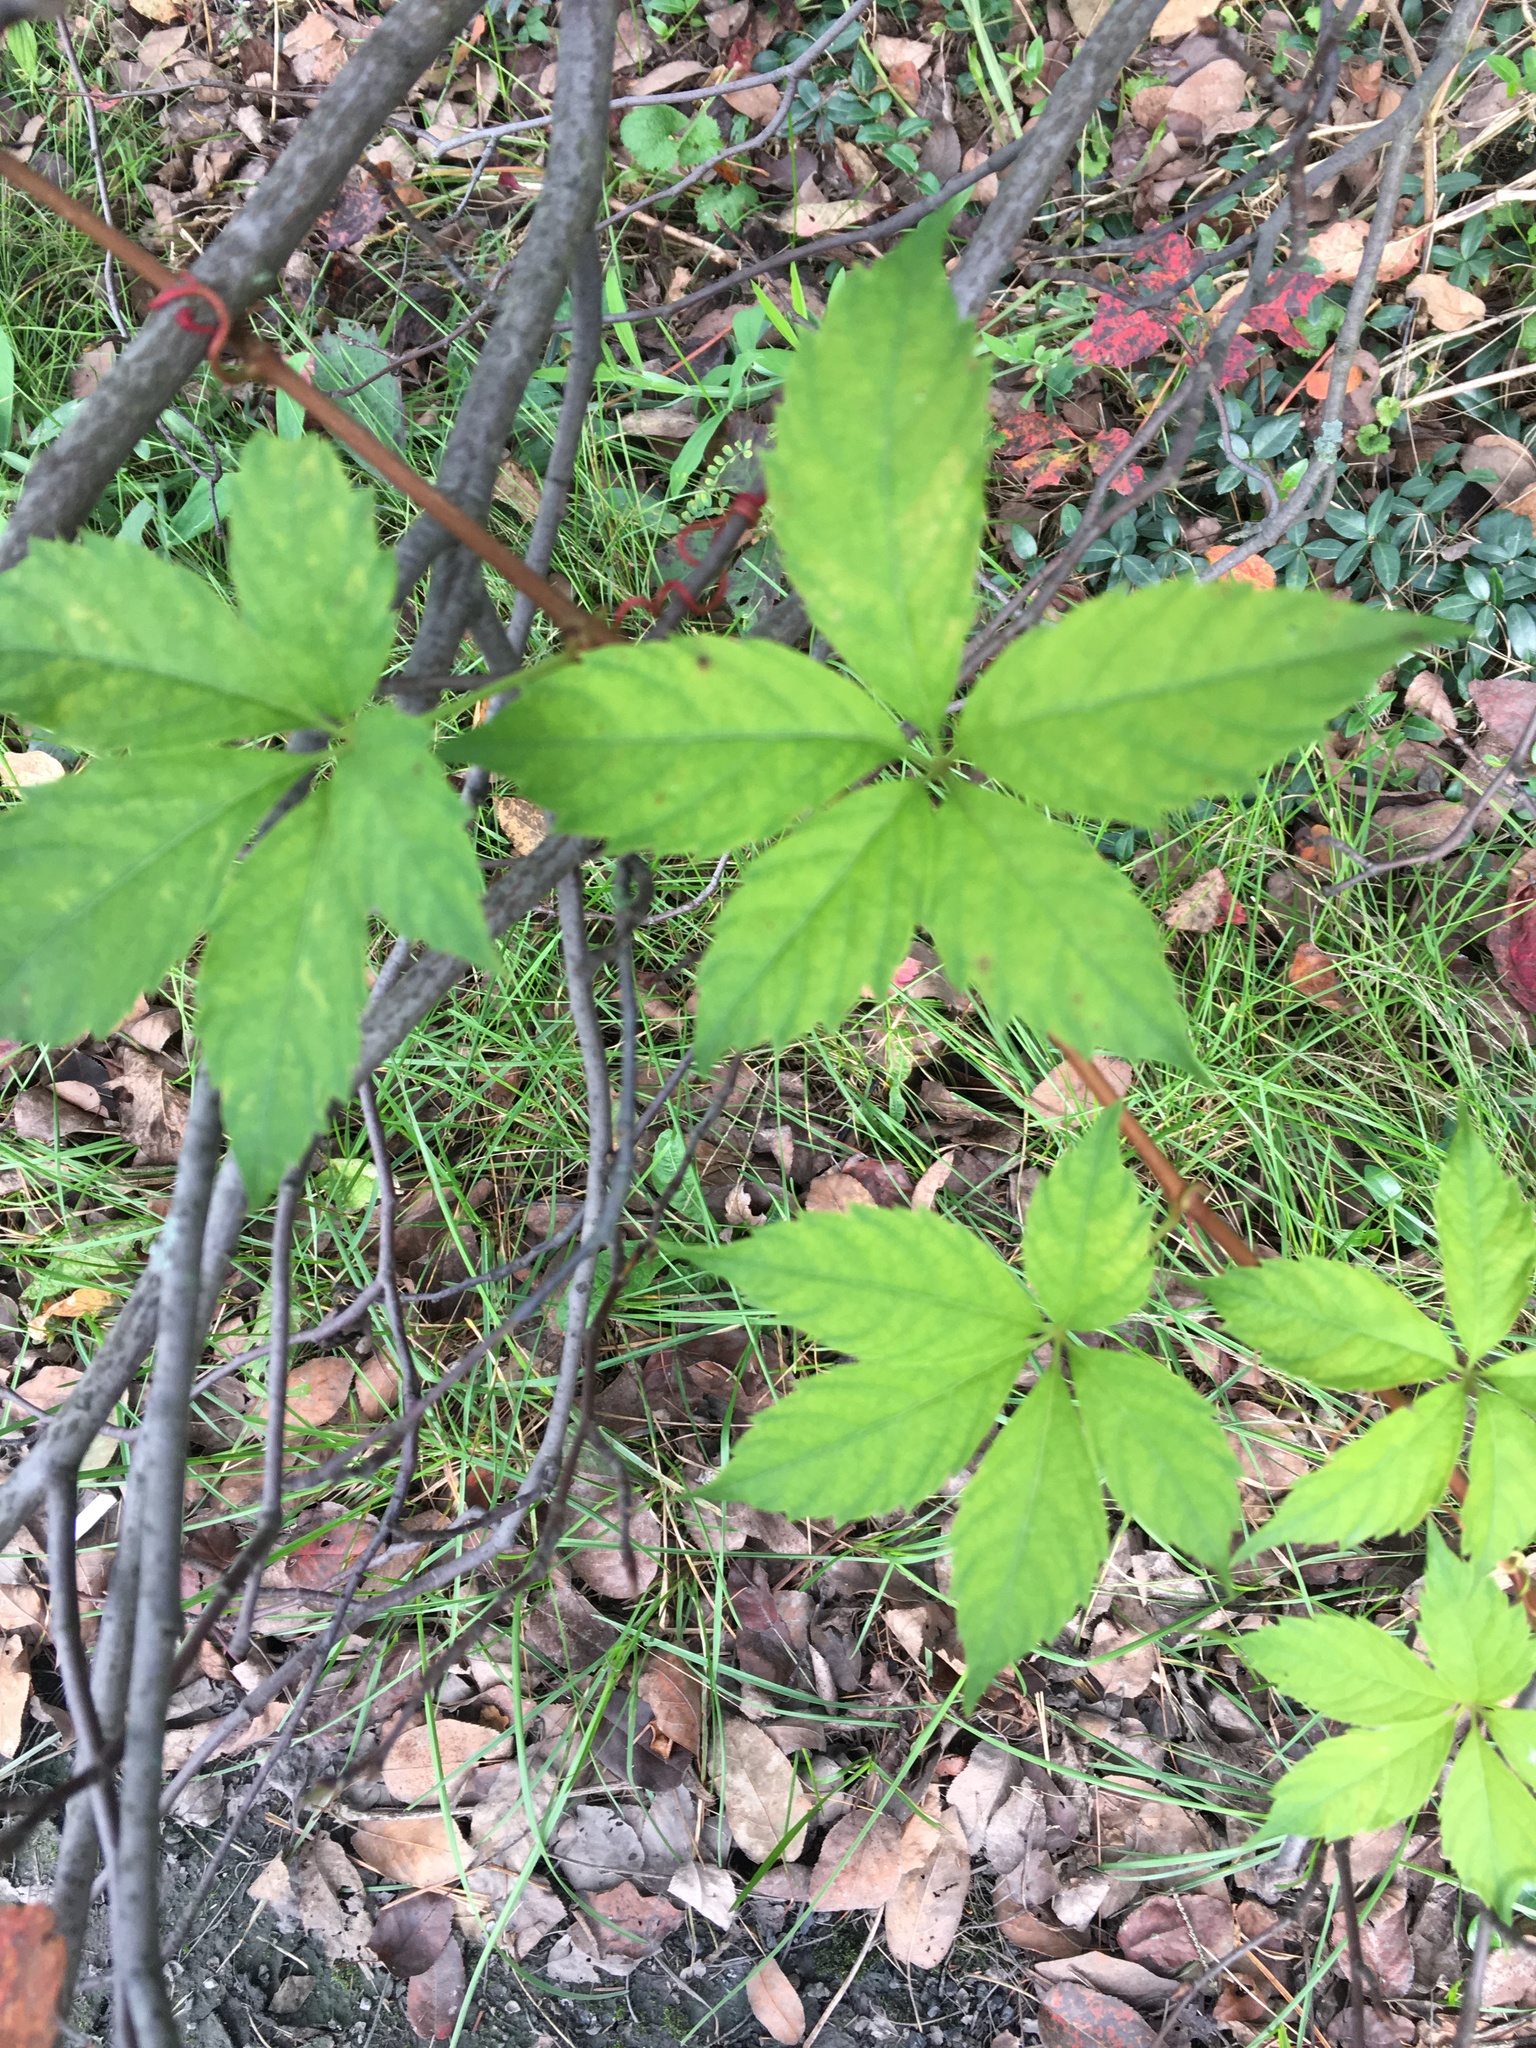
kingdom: Plantae
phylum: Tracheophyta
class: Magnoliopsida
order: Vitales
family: Vitaceae
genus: Parthenocissus
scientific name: Parthenocissus quinquefolia
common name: Virginia-creeper
